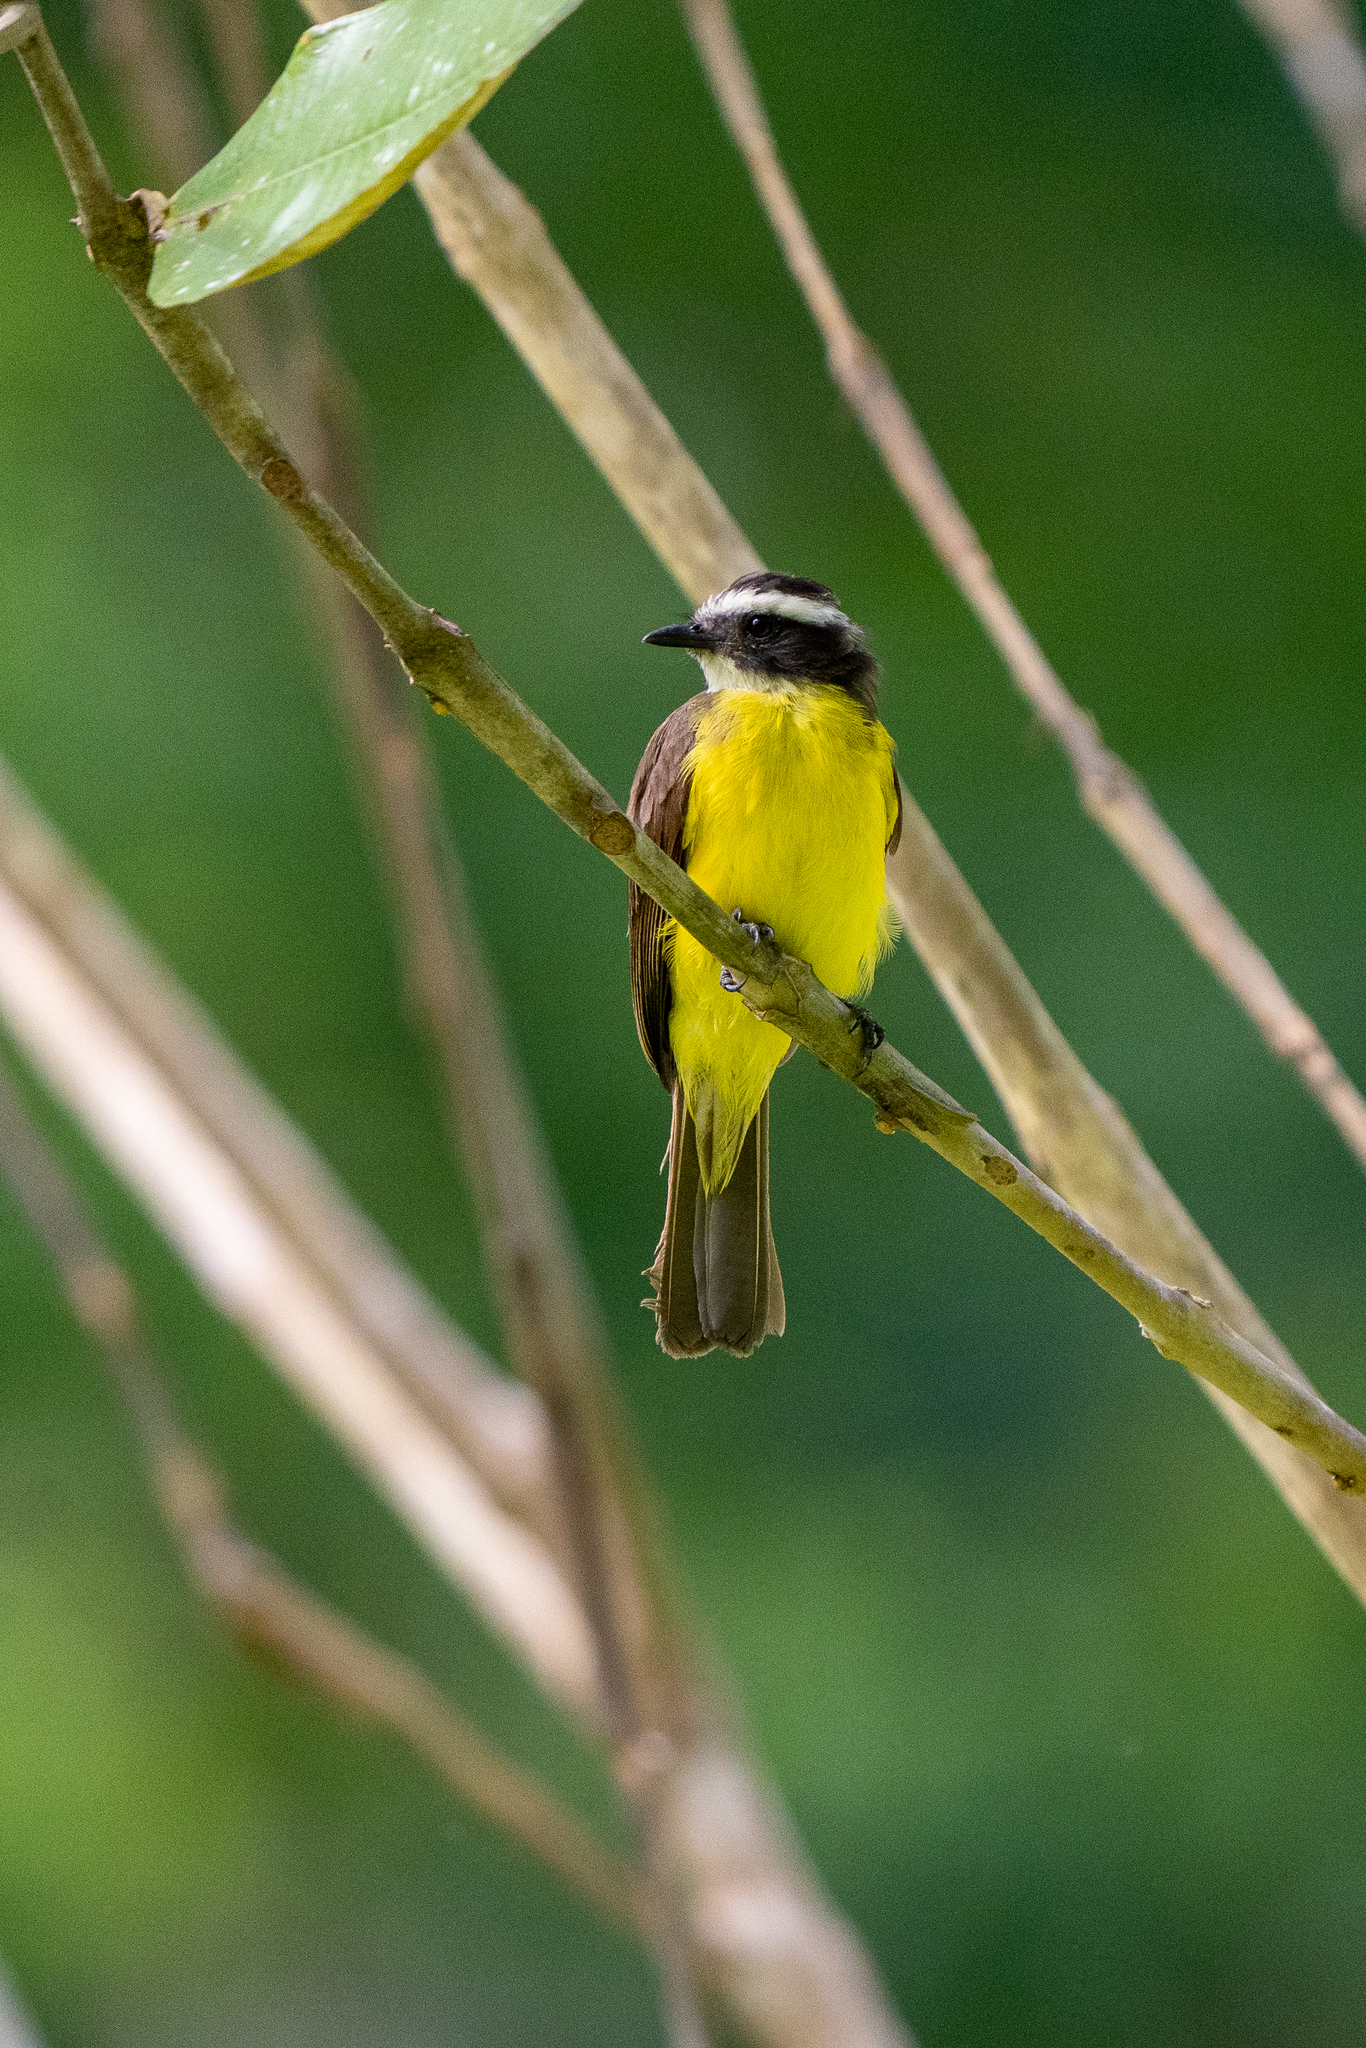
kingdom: Animalia
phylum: Chordata
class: Aves
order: Passeriformes
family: Tyrannidae
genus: Myiozetetes
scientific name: Myiozetetes cayanensis
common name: Rusty-margined flycatcher
